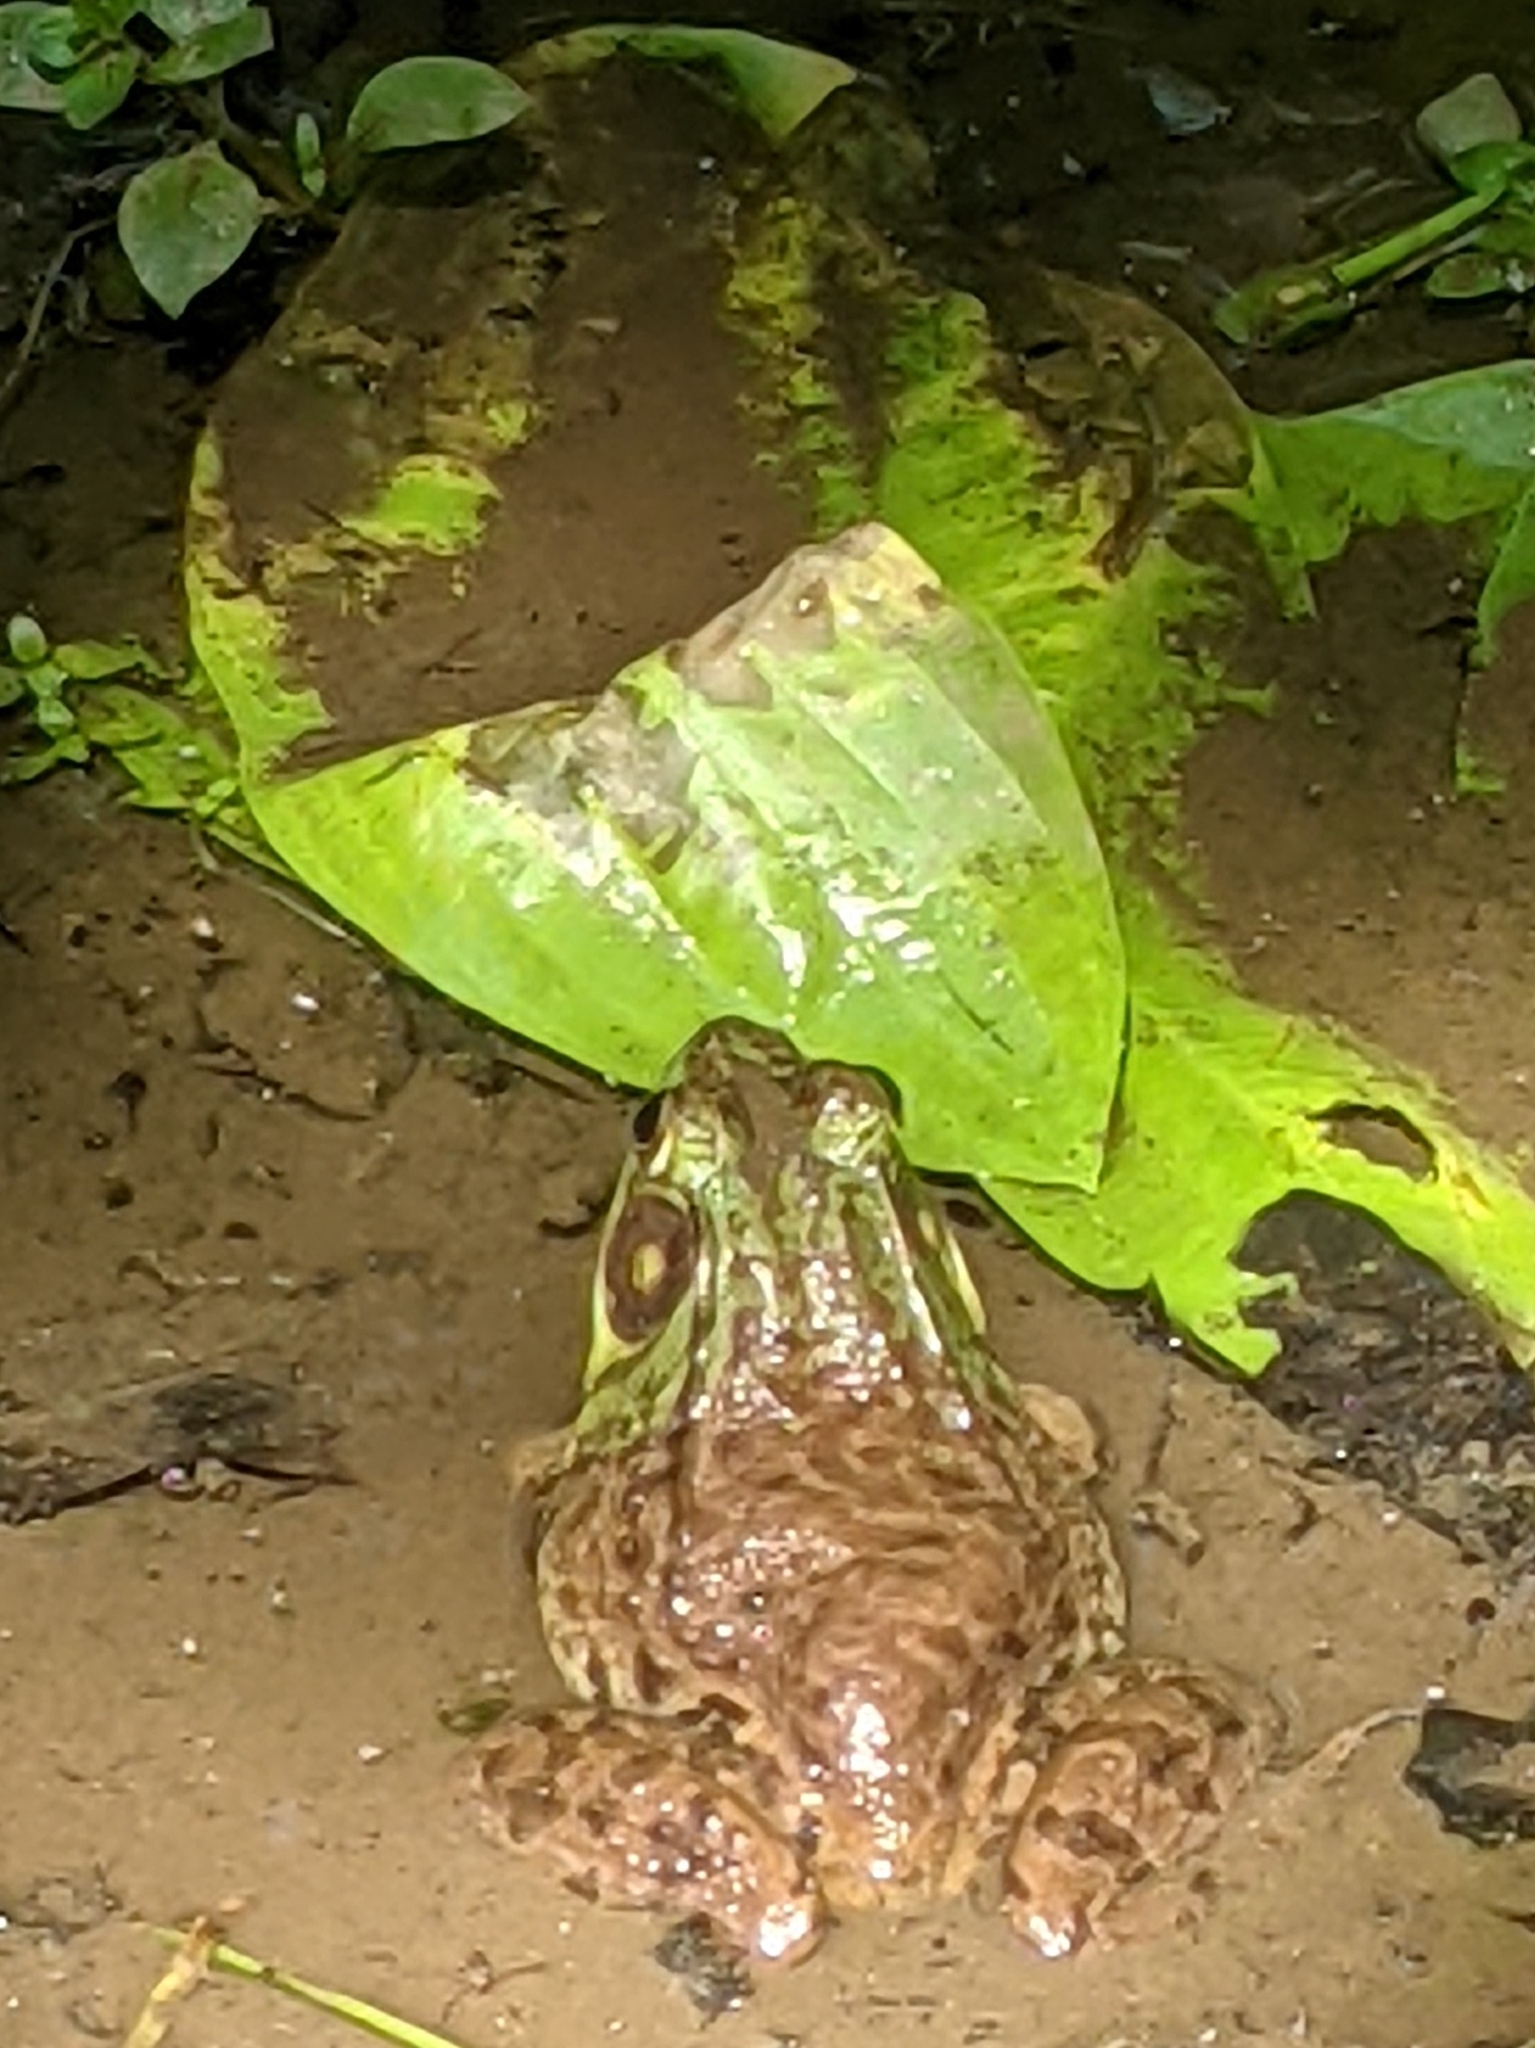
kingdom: Animalia
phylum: Chordata
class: Amphibia
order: Anura
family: Ranidae
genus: Lithobates
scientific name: Lithobates clamitans
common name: Green frog
